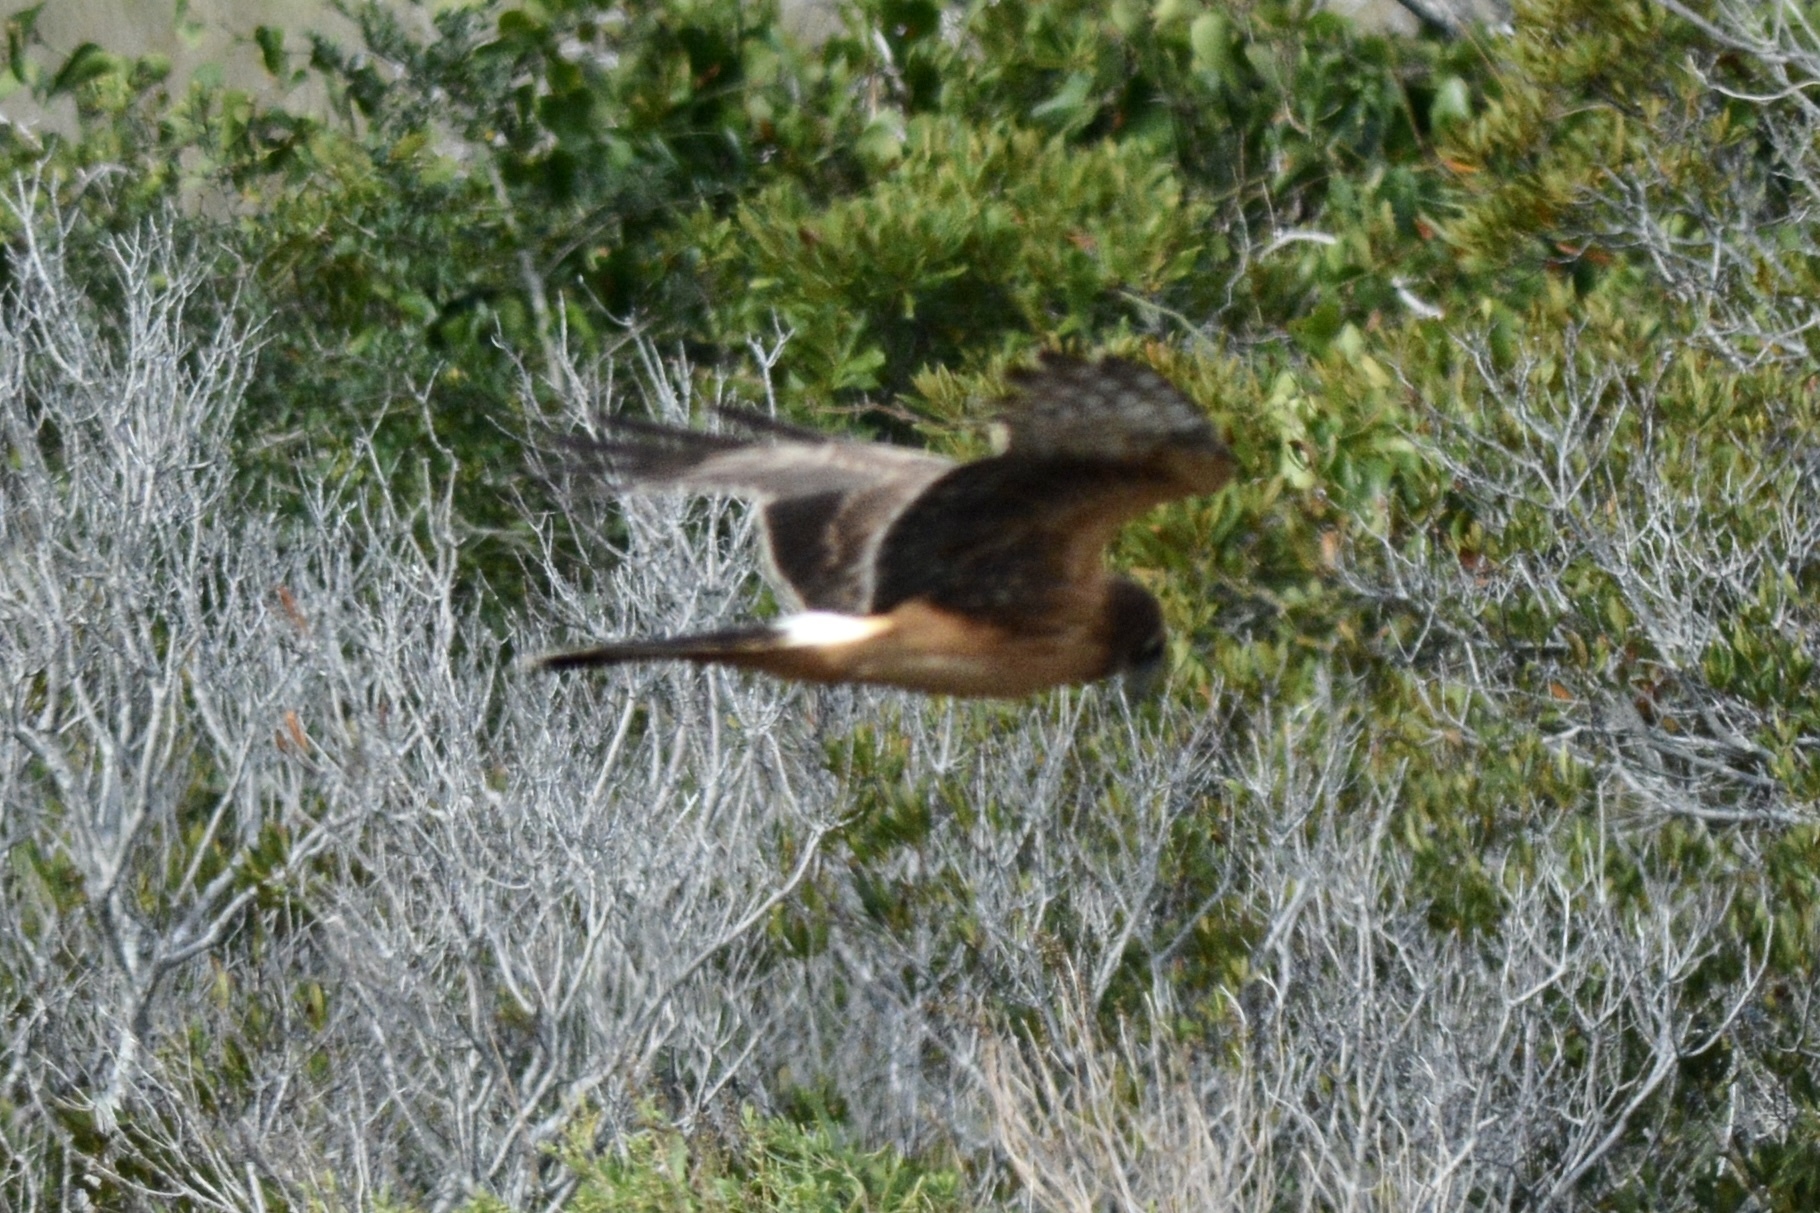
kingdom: Animalia
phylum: Chordata
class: Aves
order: Accipitriformes
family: Accipitridae
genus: Circus
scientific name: Circus cyaneus
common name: Hen harrier
